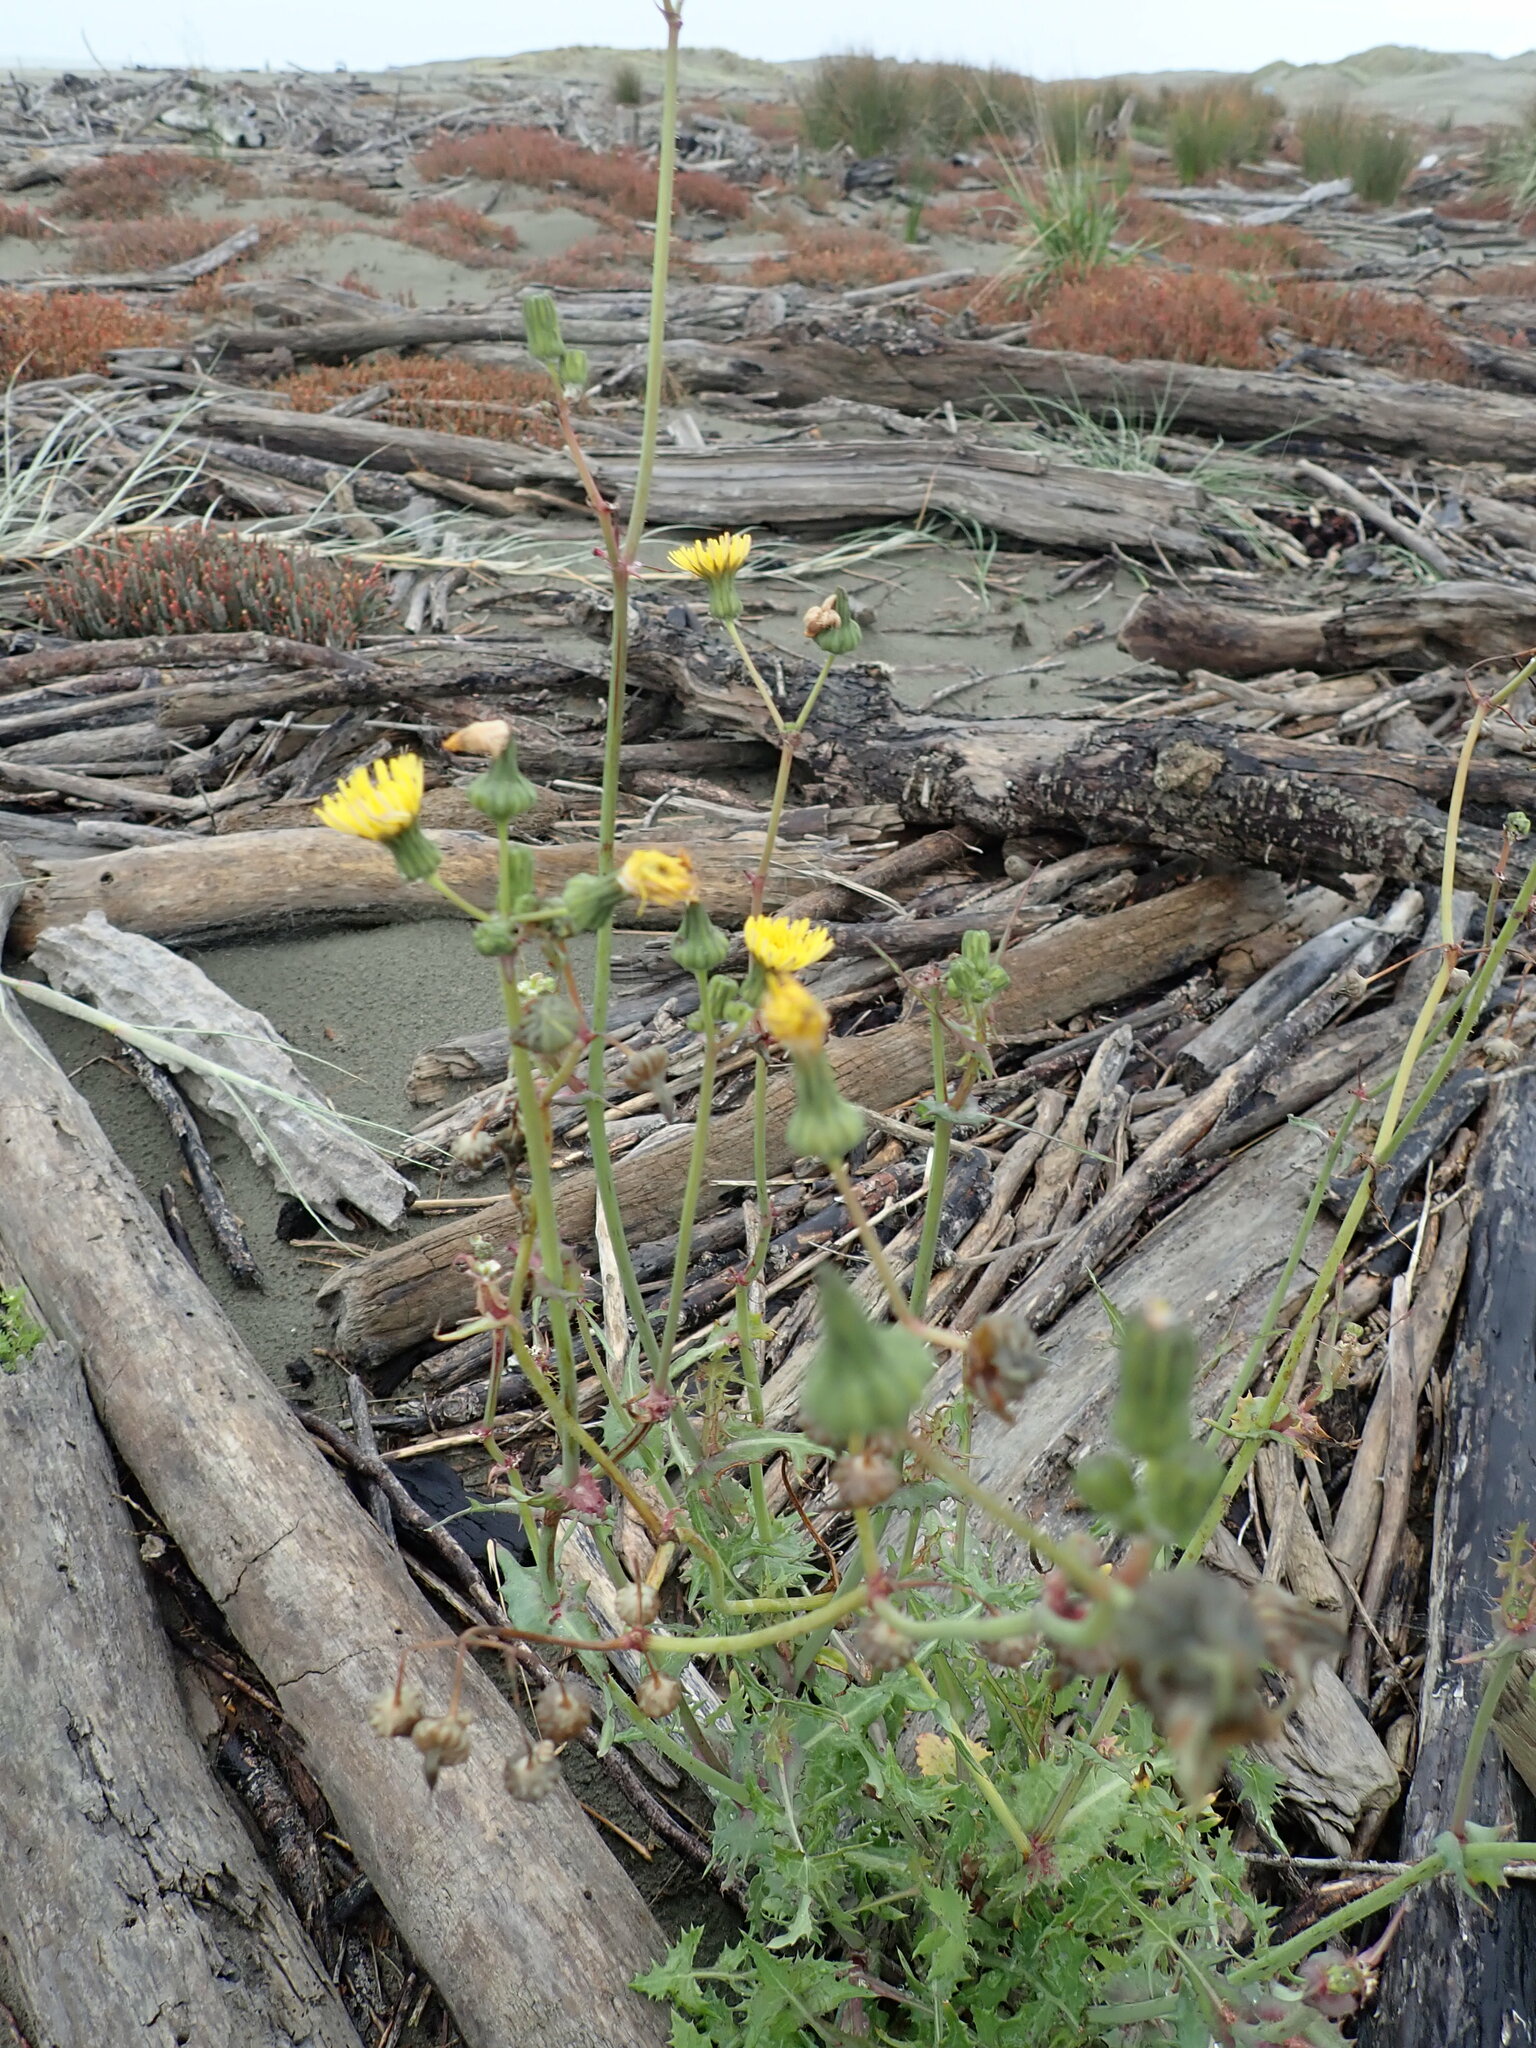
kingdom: Plantae
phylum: Tracheophyta
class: Magnoliopsida
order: Asterales
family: Asteraceae
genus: Sonchus
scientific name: Sonchus oleraceus
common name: Common sowthistle
